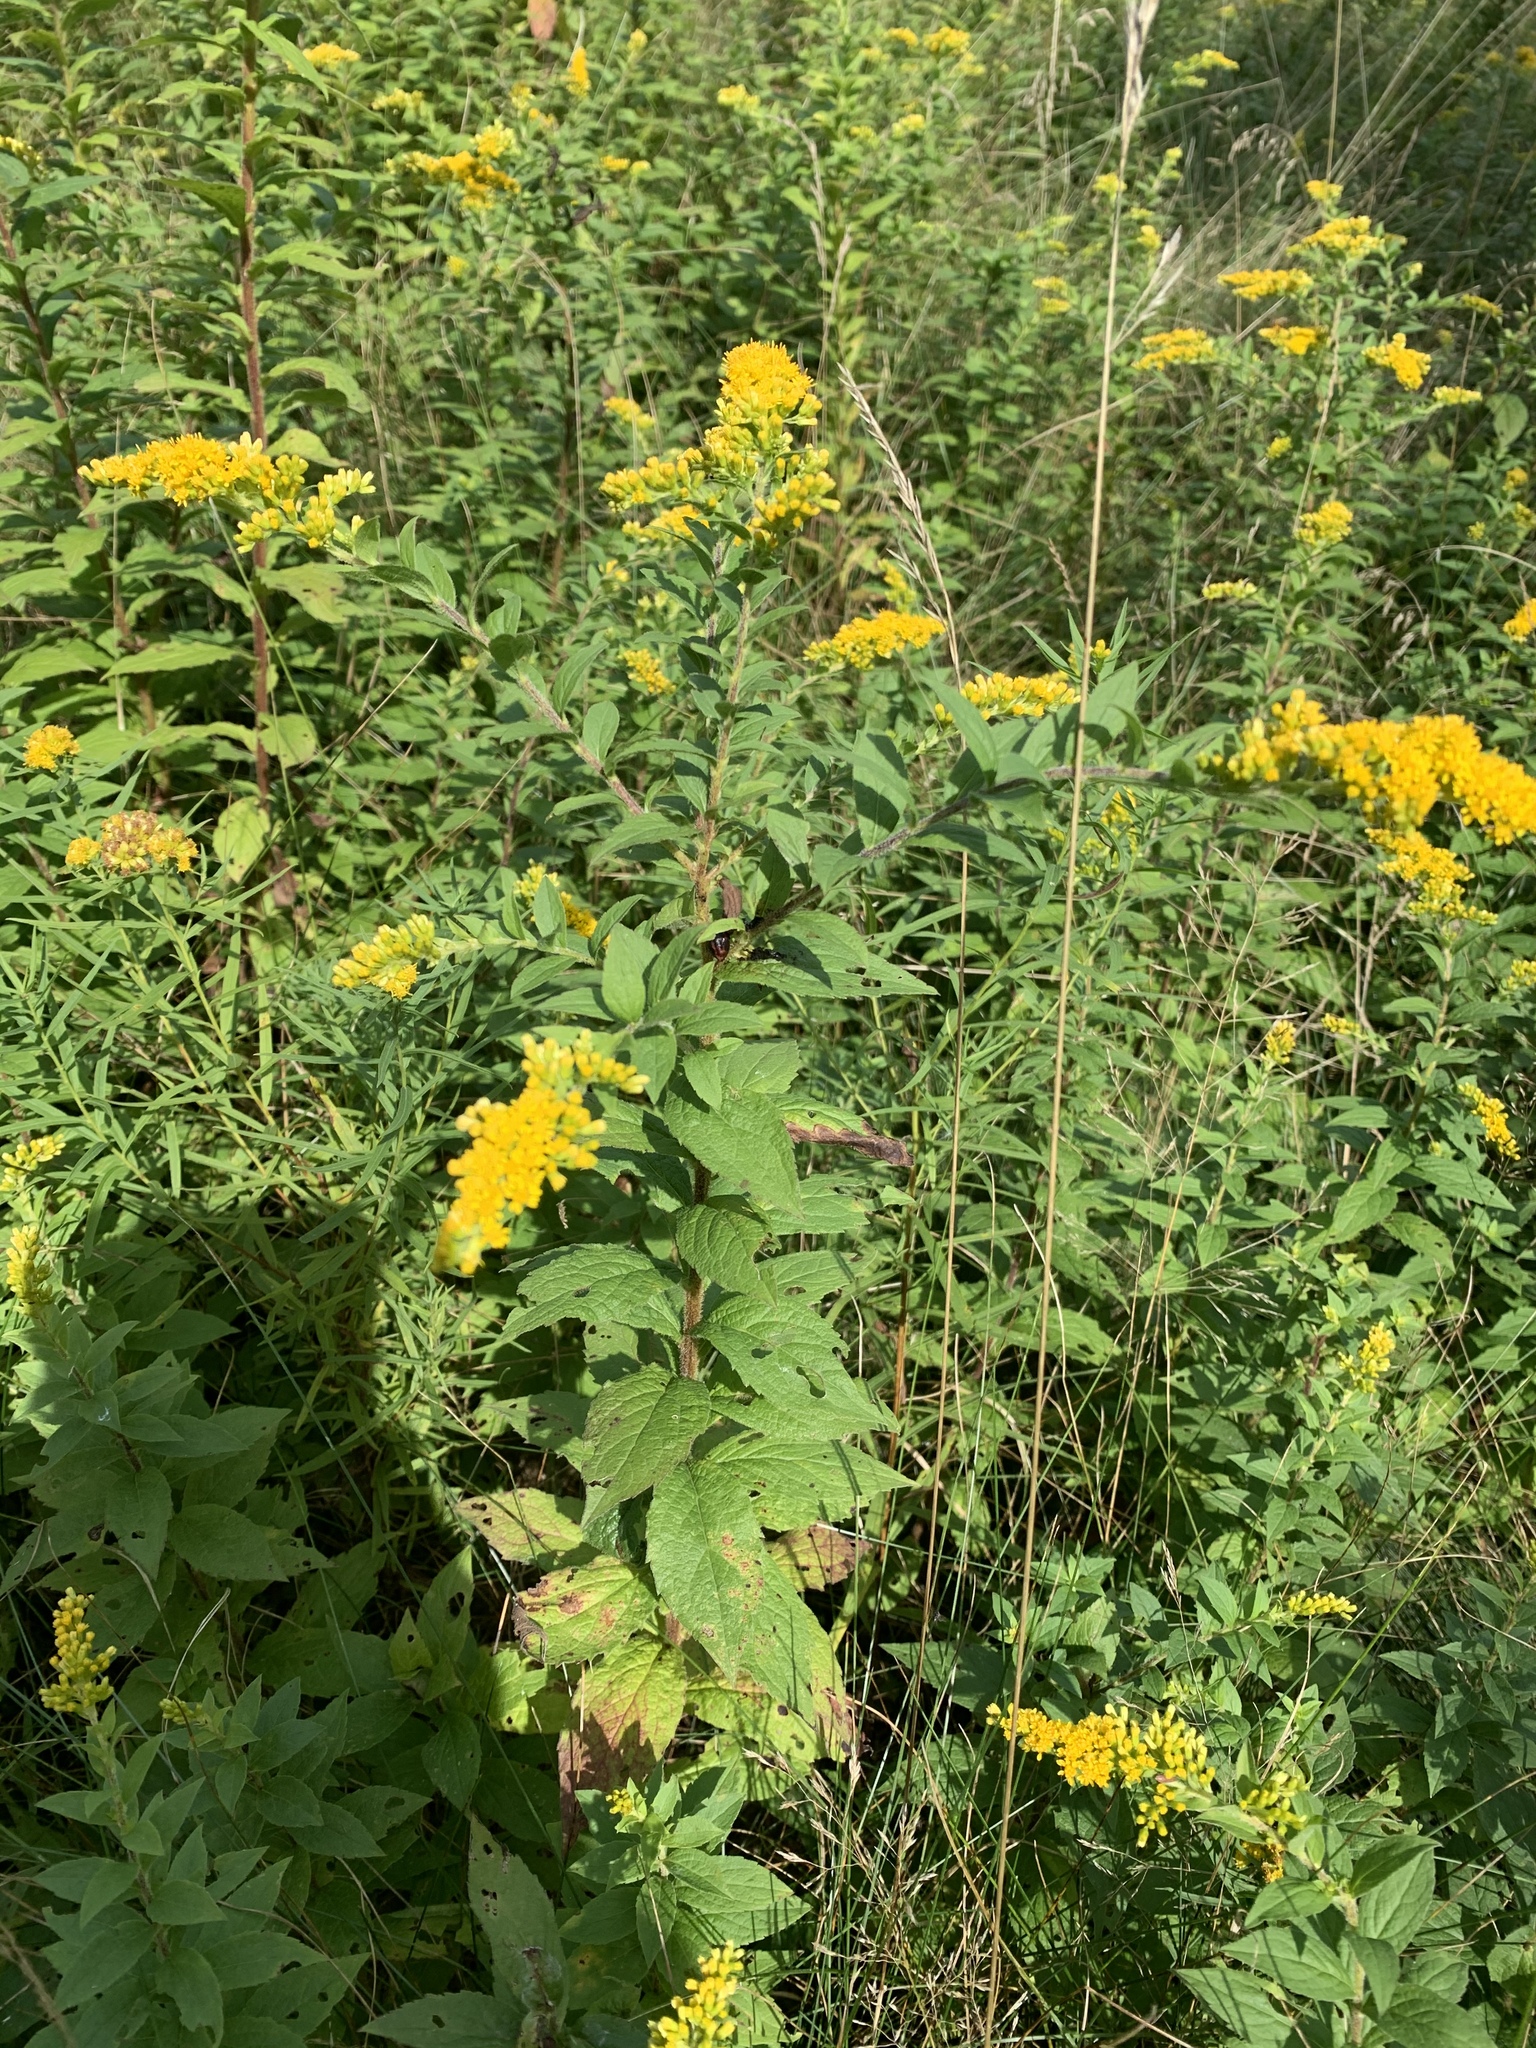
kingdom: Plantae
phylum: Tracheophyta
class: Magnoliopsida
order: Asterales
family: Asteraceae
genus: Solidago
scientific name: Solidago rugosa
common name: Rough-stemmed goldenrod
